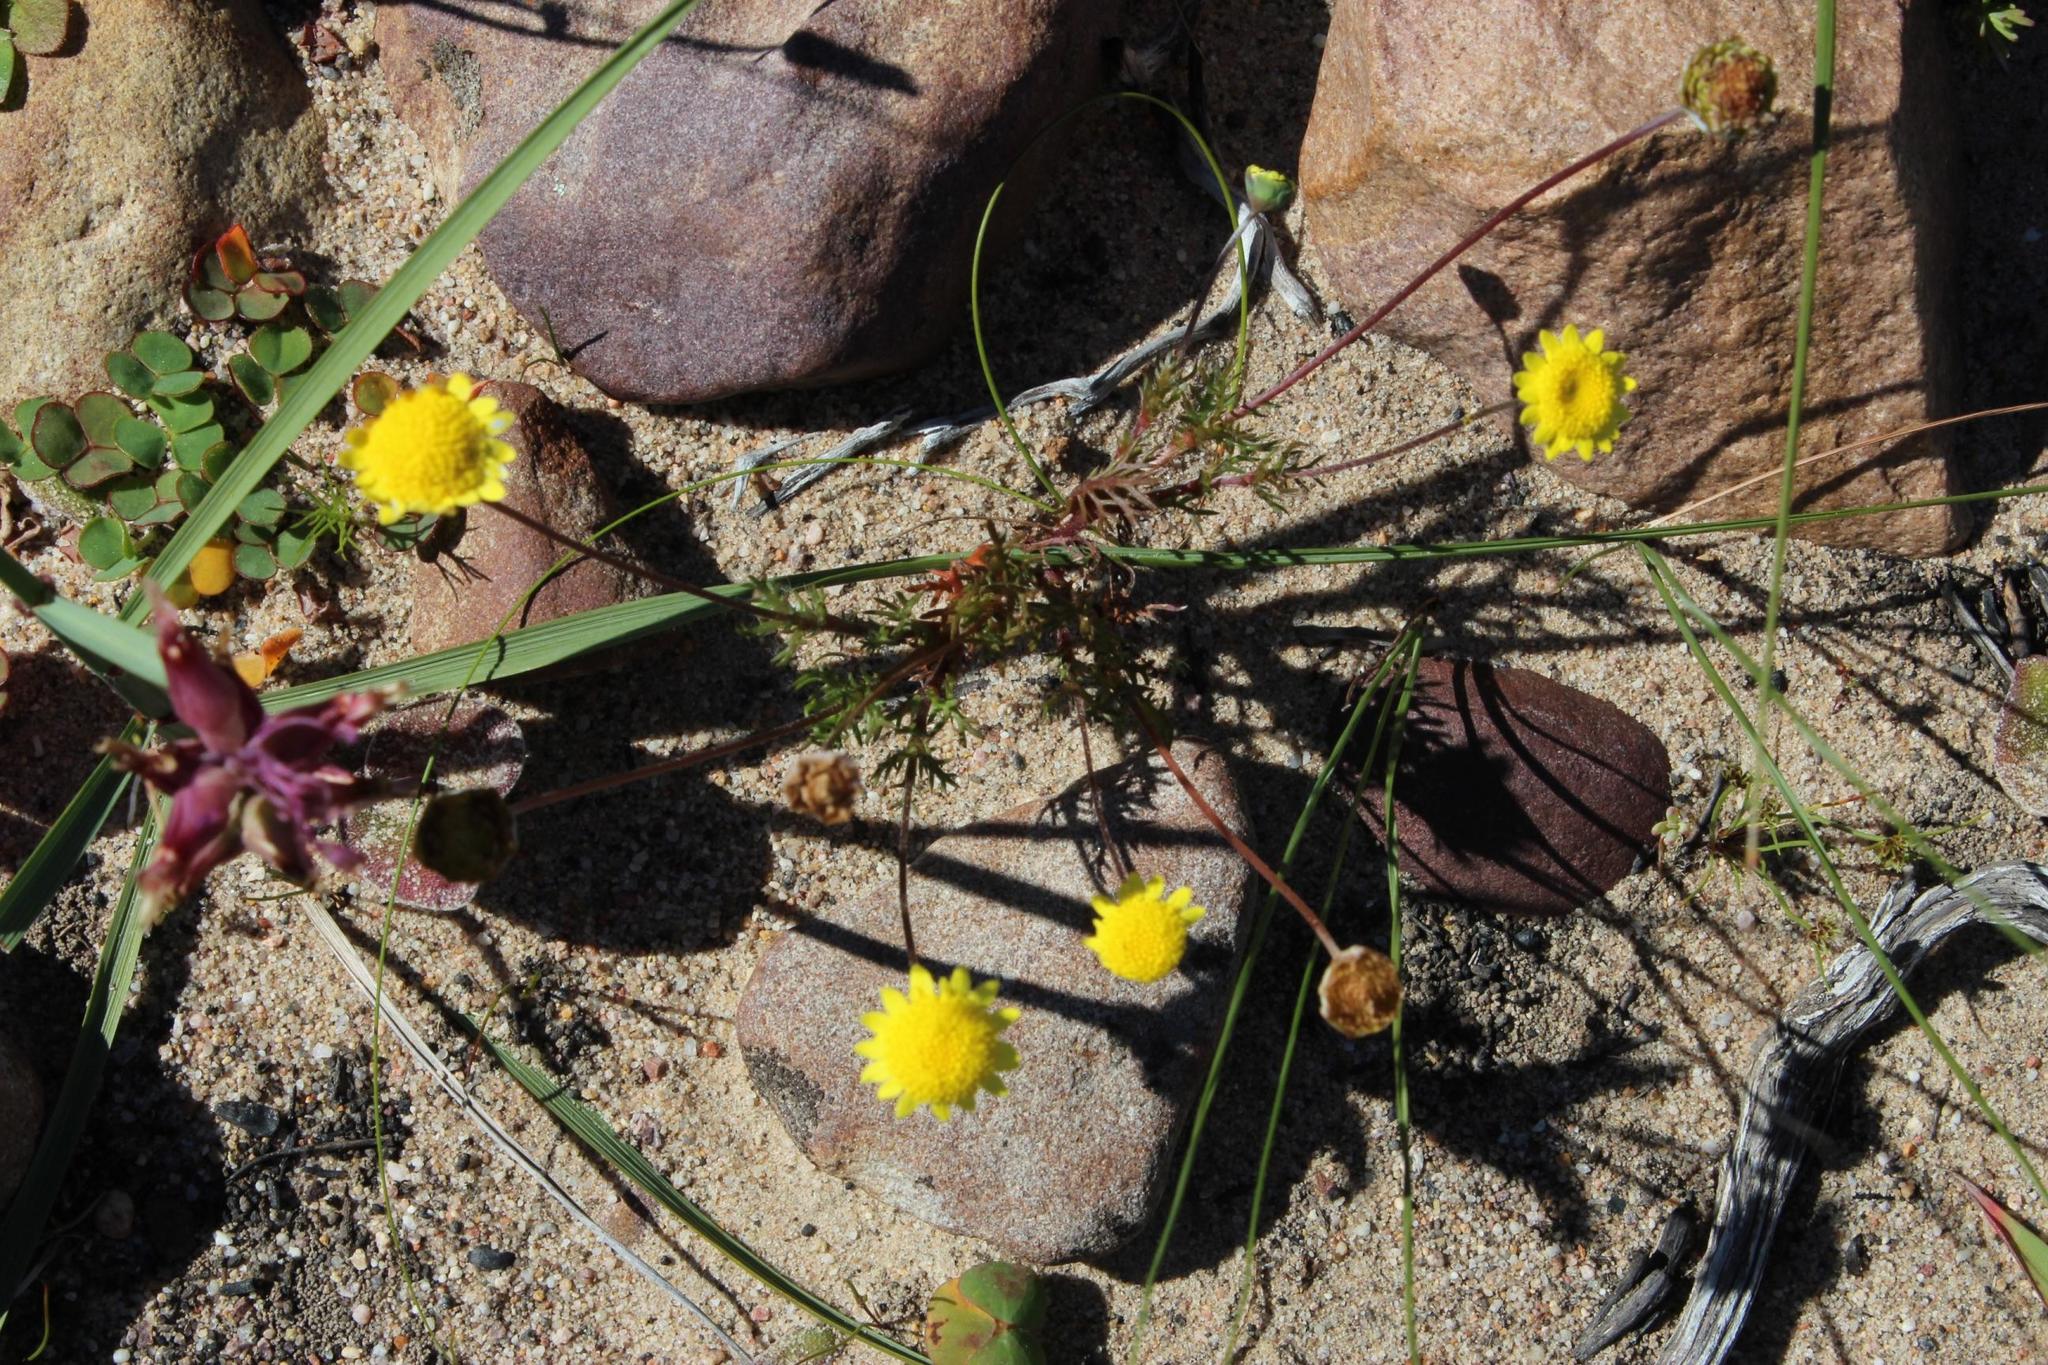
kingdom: Plantae
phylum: Tracheophyta
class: Magnoliopsida
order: Asterales
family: Asteraceae
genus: Cotula
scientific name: Cotula pruinosa
